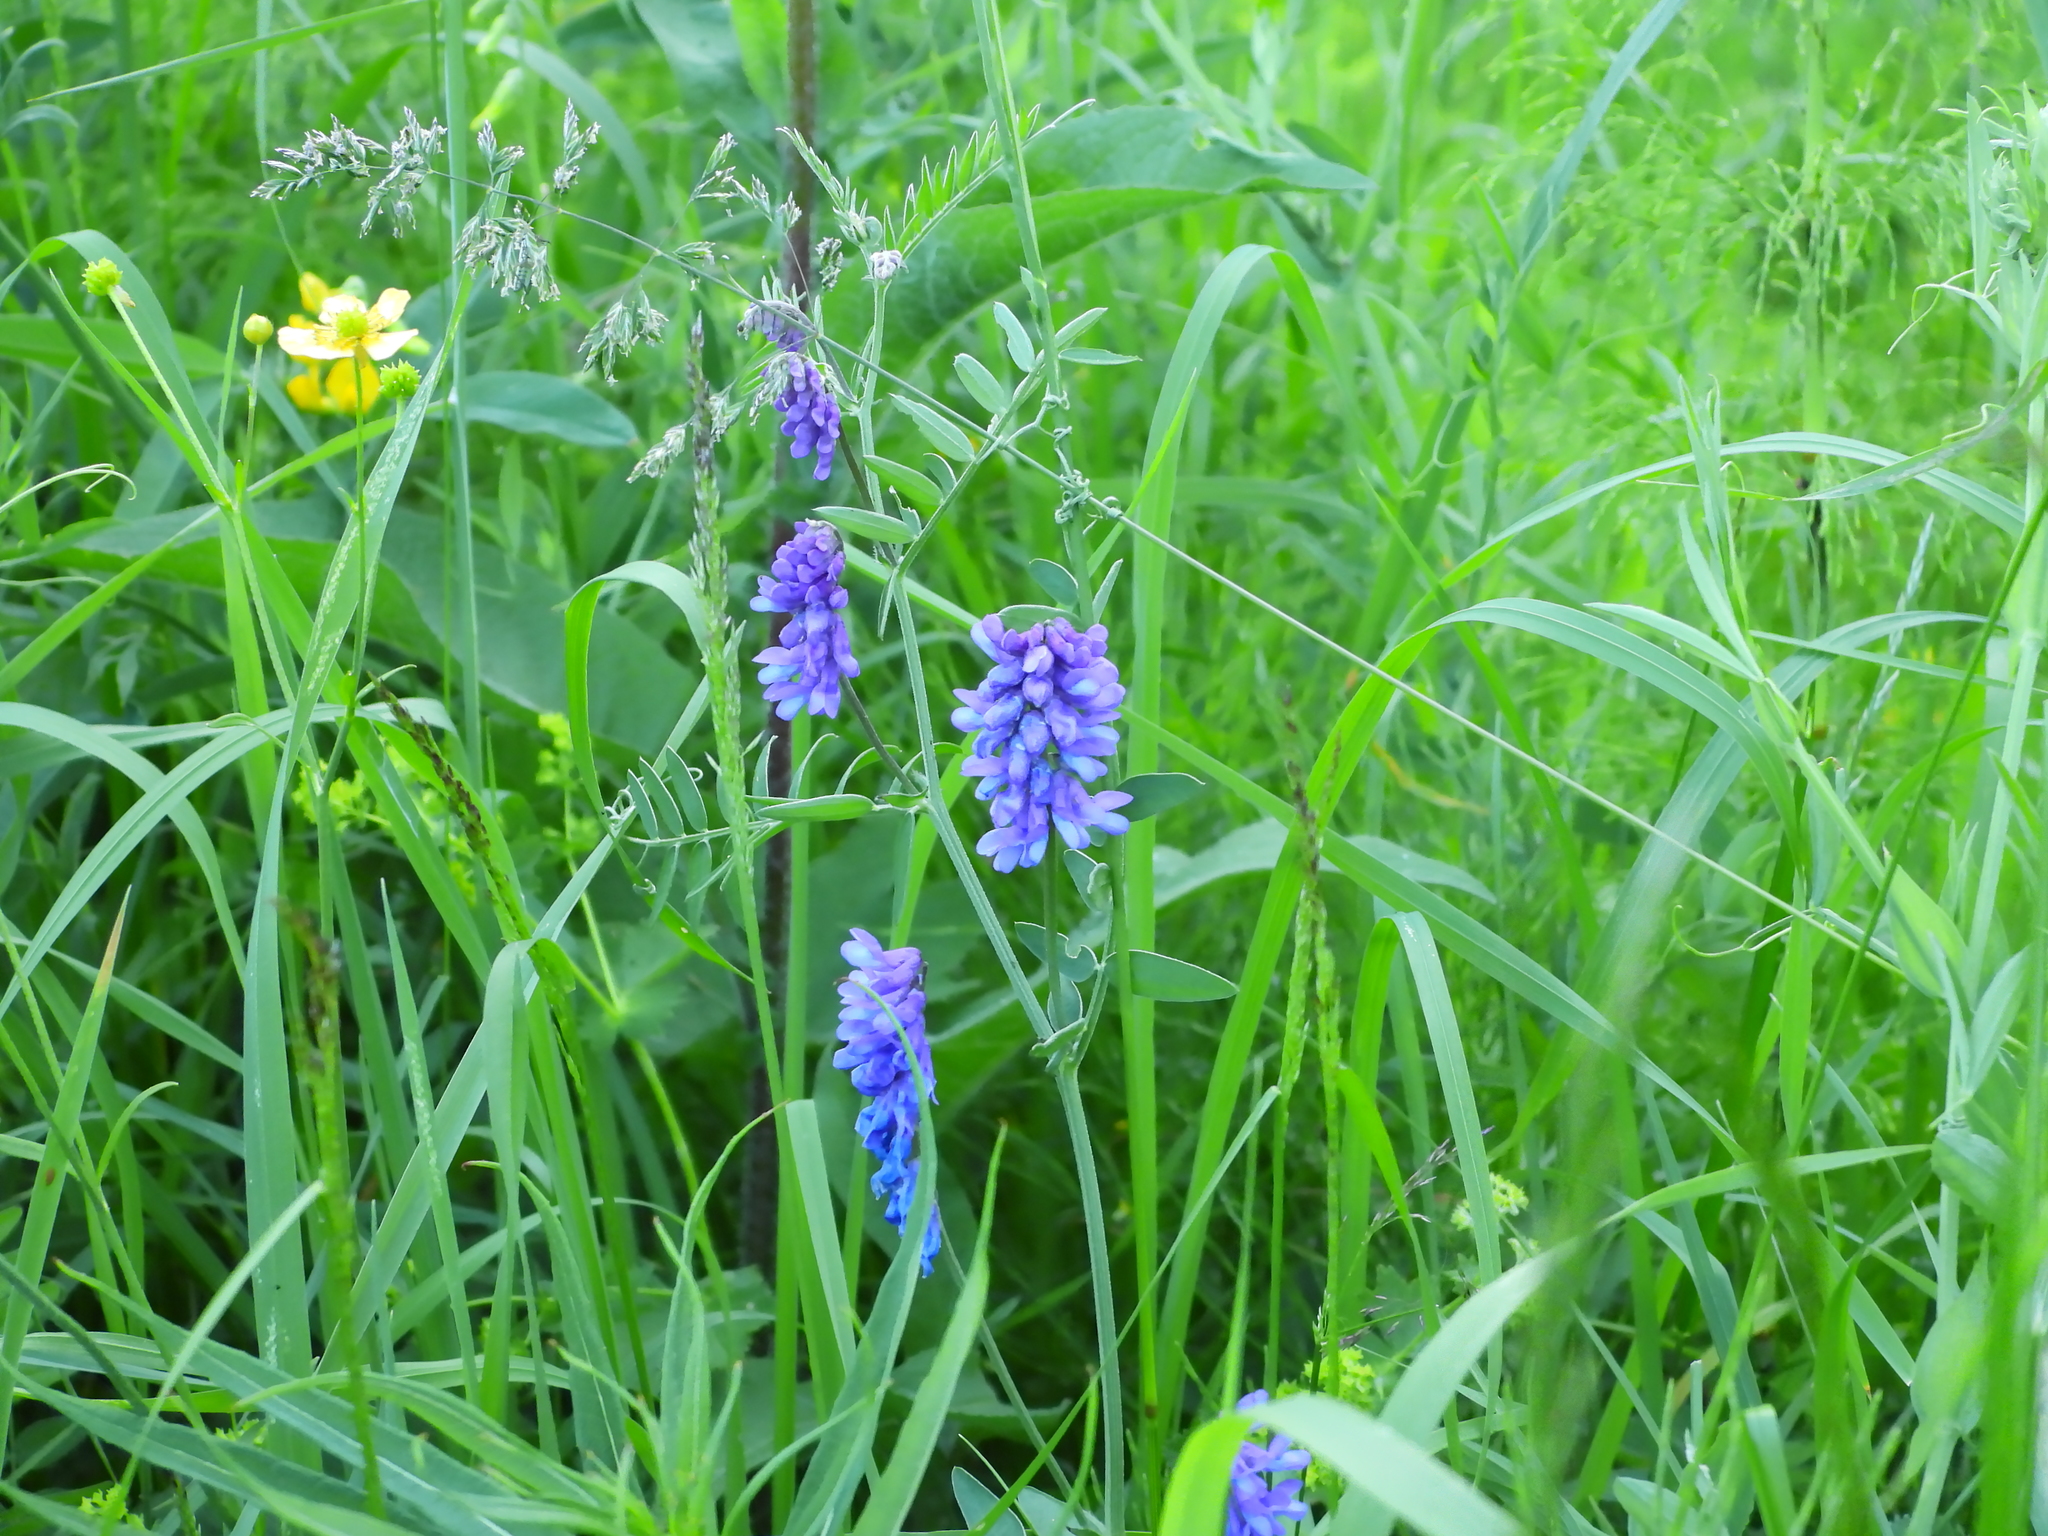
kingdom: Plantae
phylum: Tracheophyta
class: Magnoliopsida
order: Fabales
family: Fabaceae
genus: Vicia
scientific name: Vicia cracca
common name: Bird vetch
